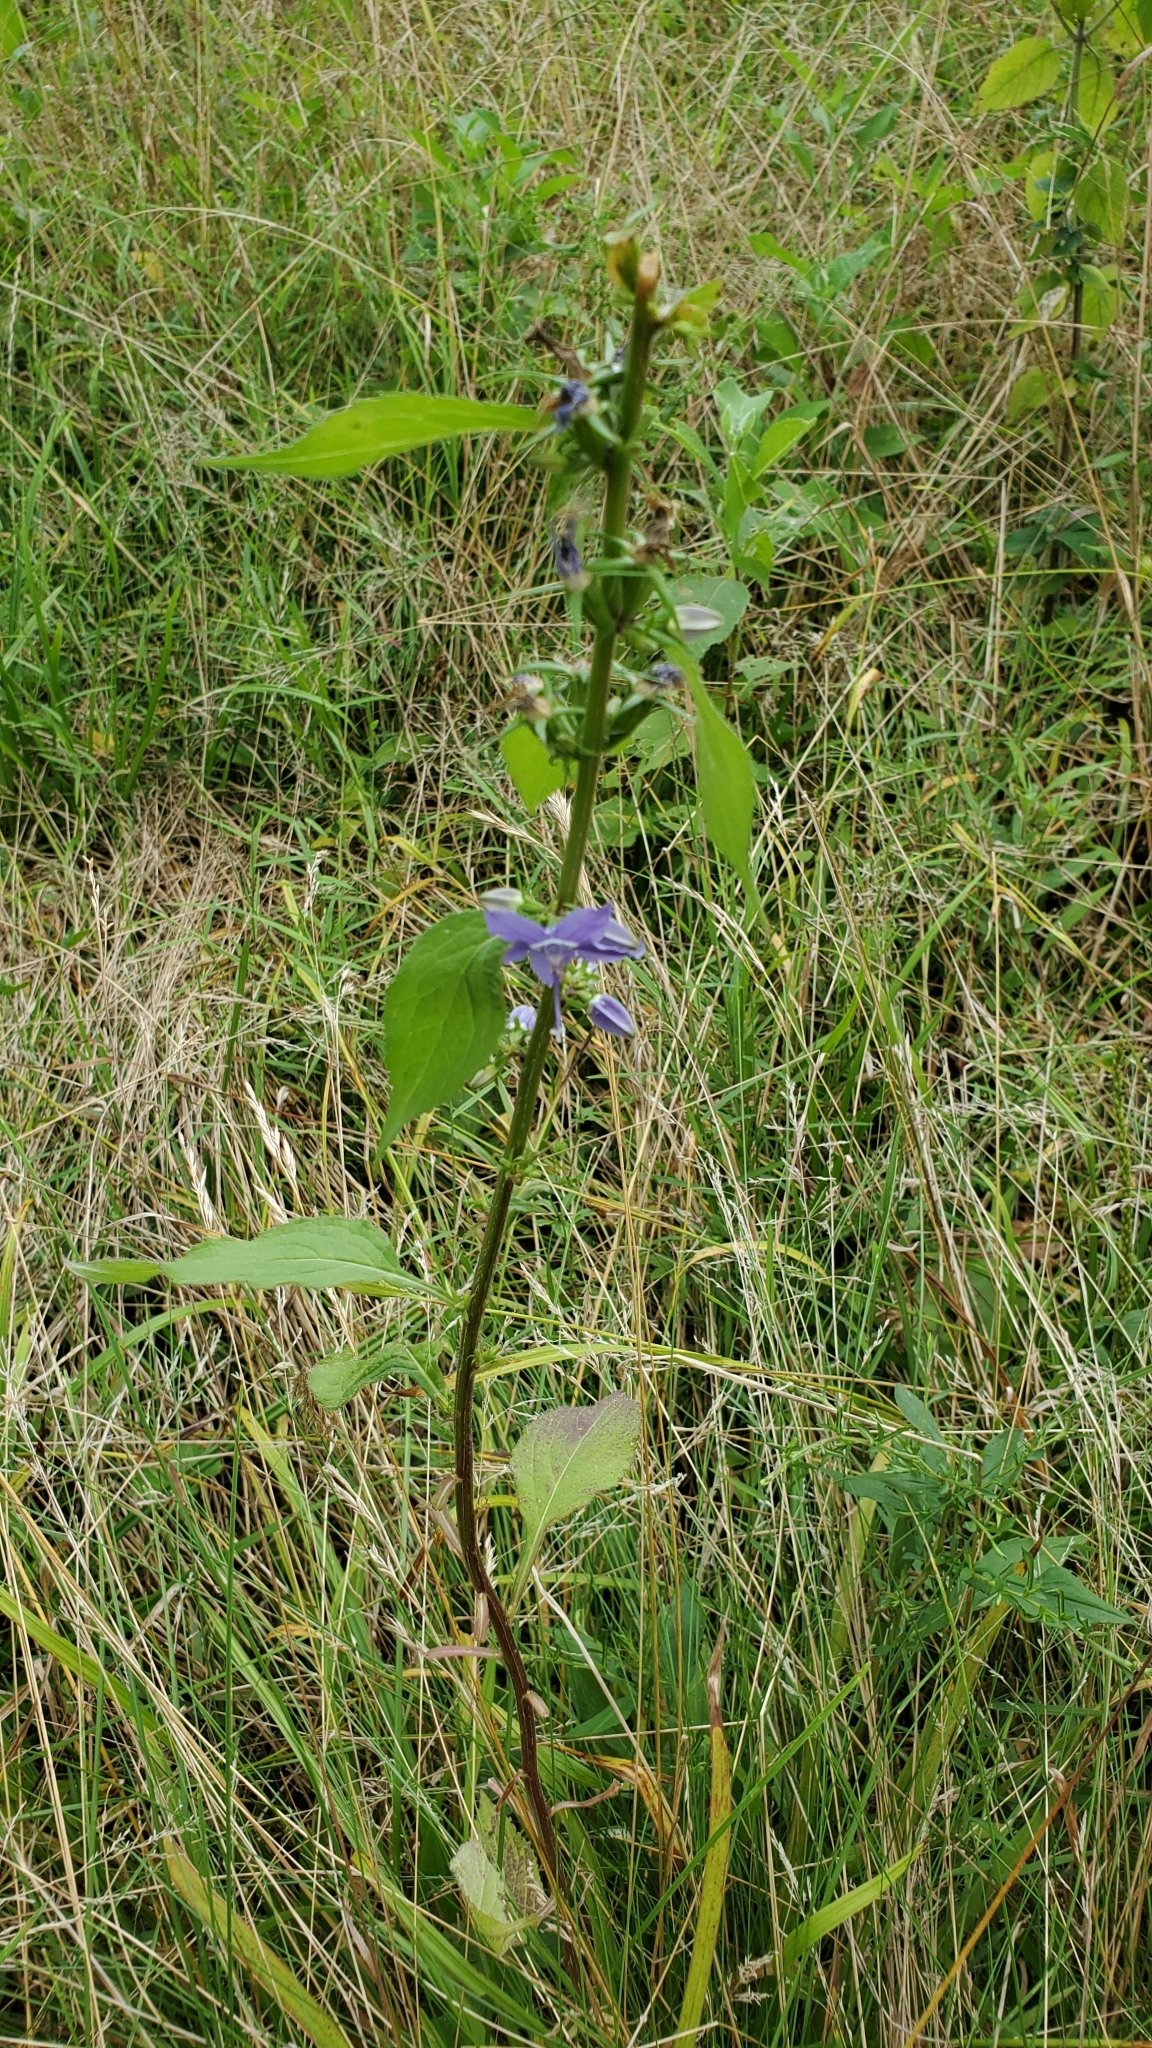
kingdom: Plantae
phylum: Tracheophyta
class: Magnoliopsida
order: Asterales
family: Campanulaceae
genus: Campanulastrum
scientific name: Campanulastrum americanum
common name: American bellflower
